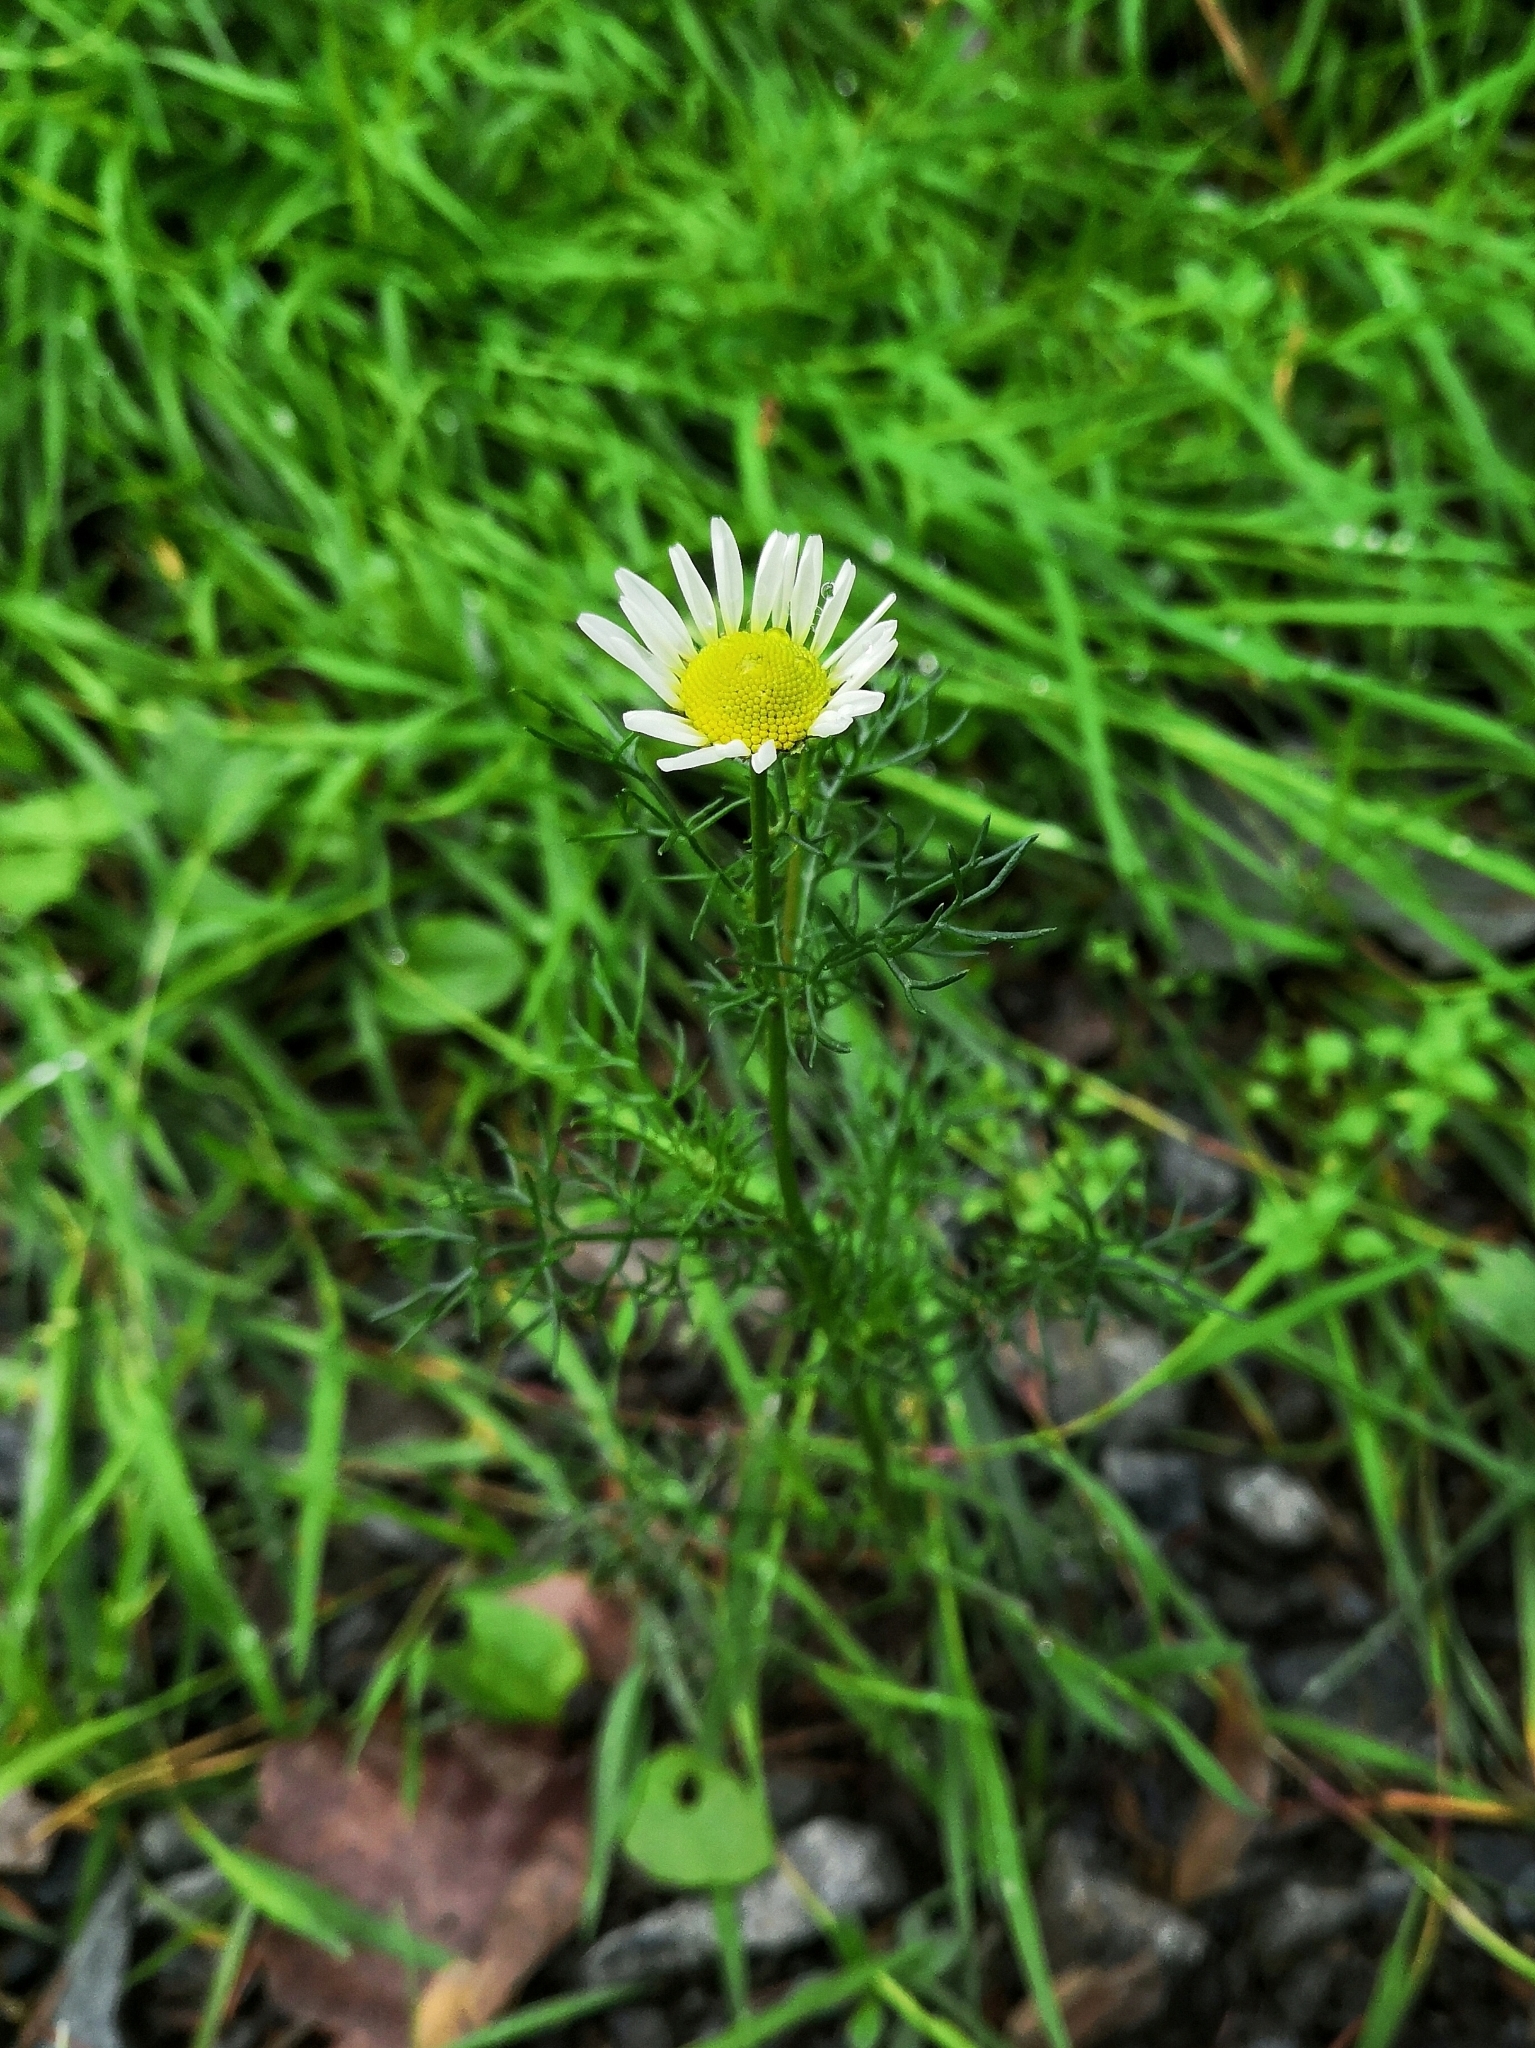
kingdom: Plantae
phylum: Tracheophyta
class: Magnoliopsida
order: Asterales
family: Asteraceae
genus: Tripleurospermum
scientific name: Tripleurospermum inodorum
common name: Scentless mayweed
